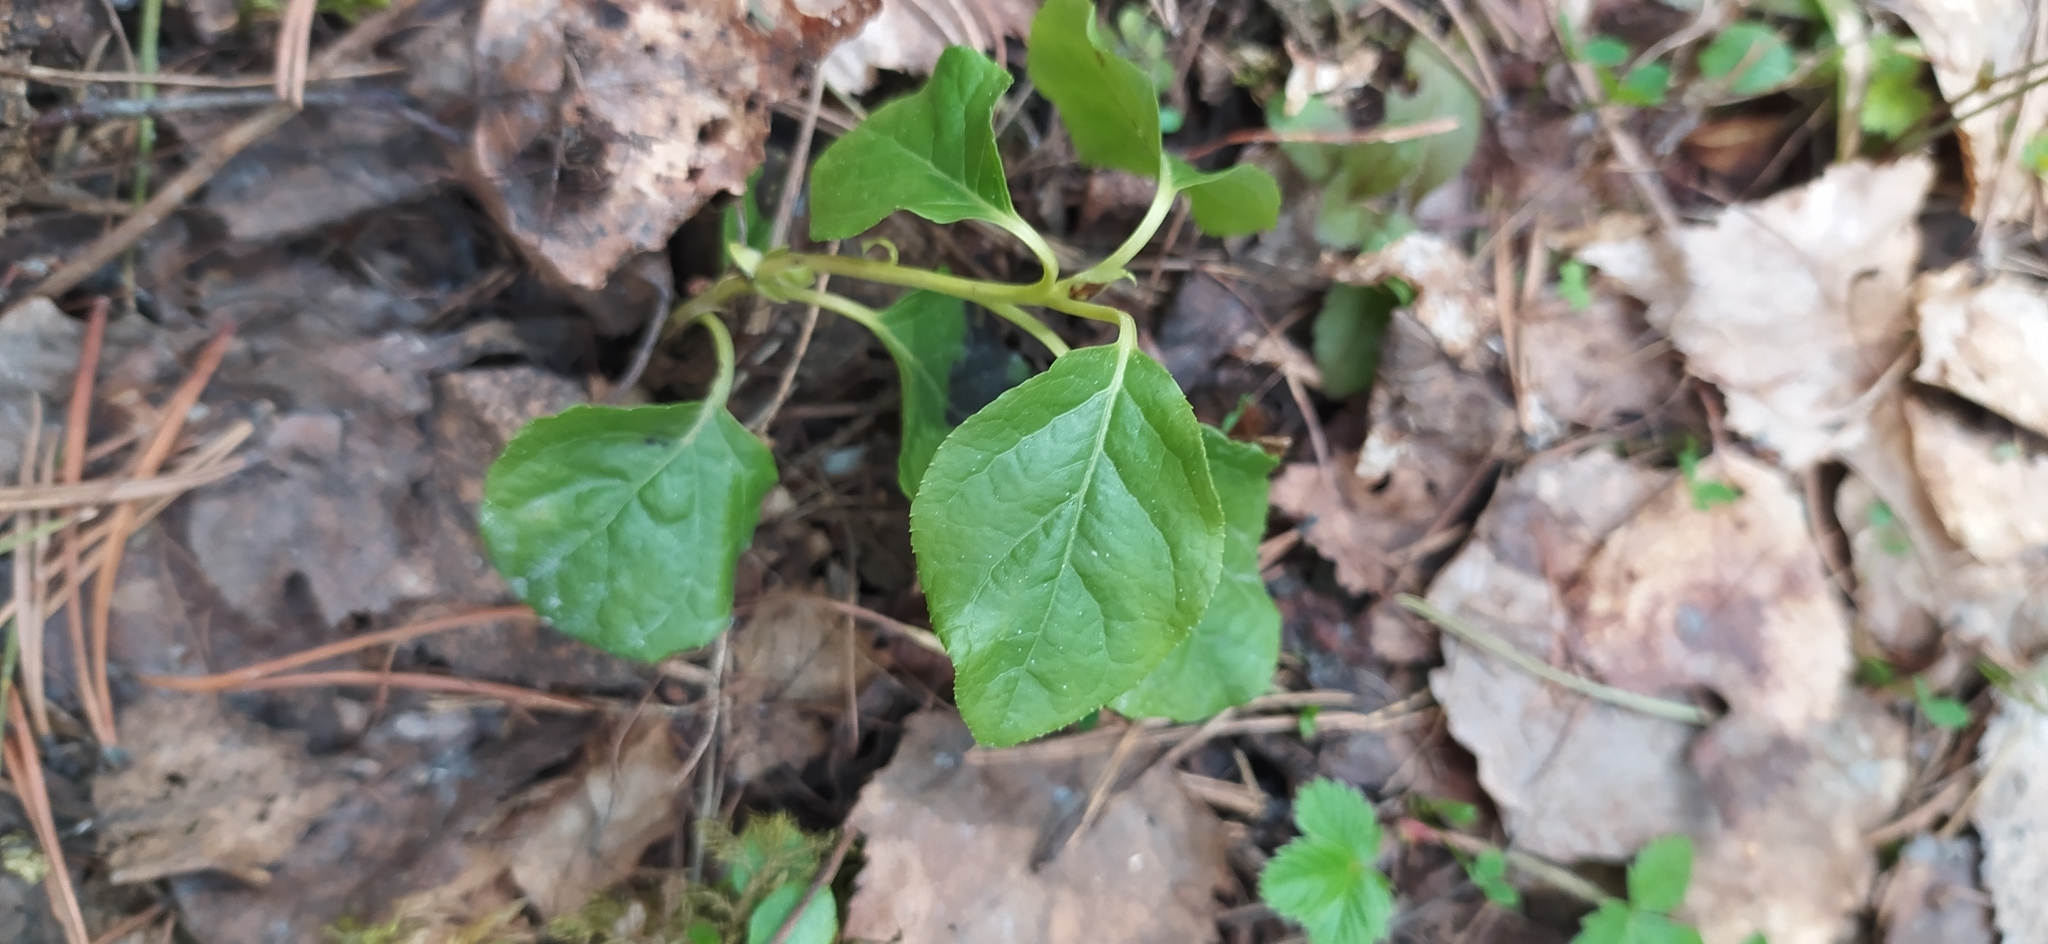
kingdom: Plantae
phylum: Tracheophyta
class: Magnoliopsida
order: Ericales
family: Ericaceae
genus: Orthilia
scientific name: Orthilia secunda
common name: One-sided orthilia
